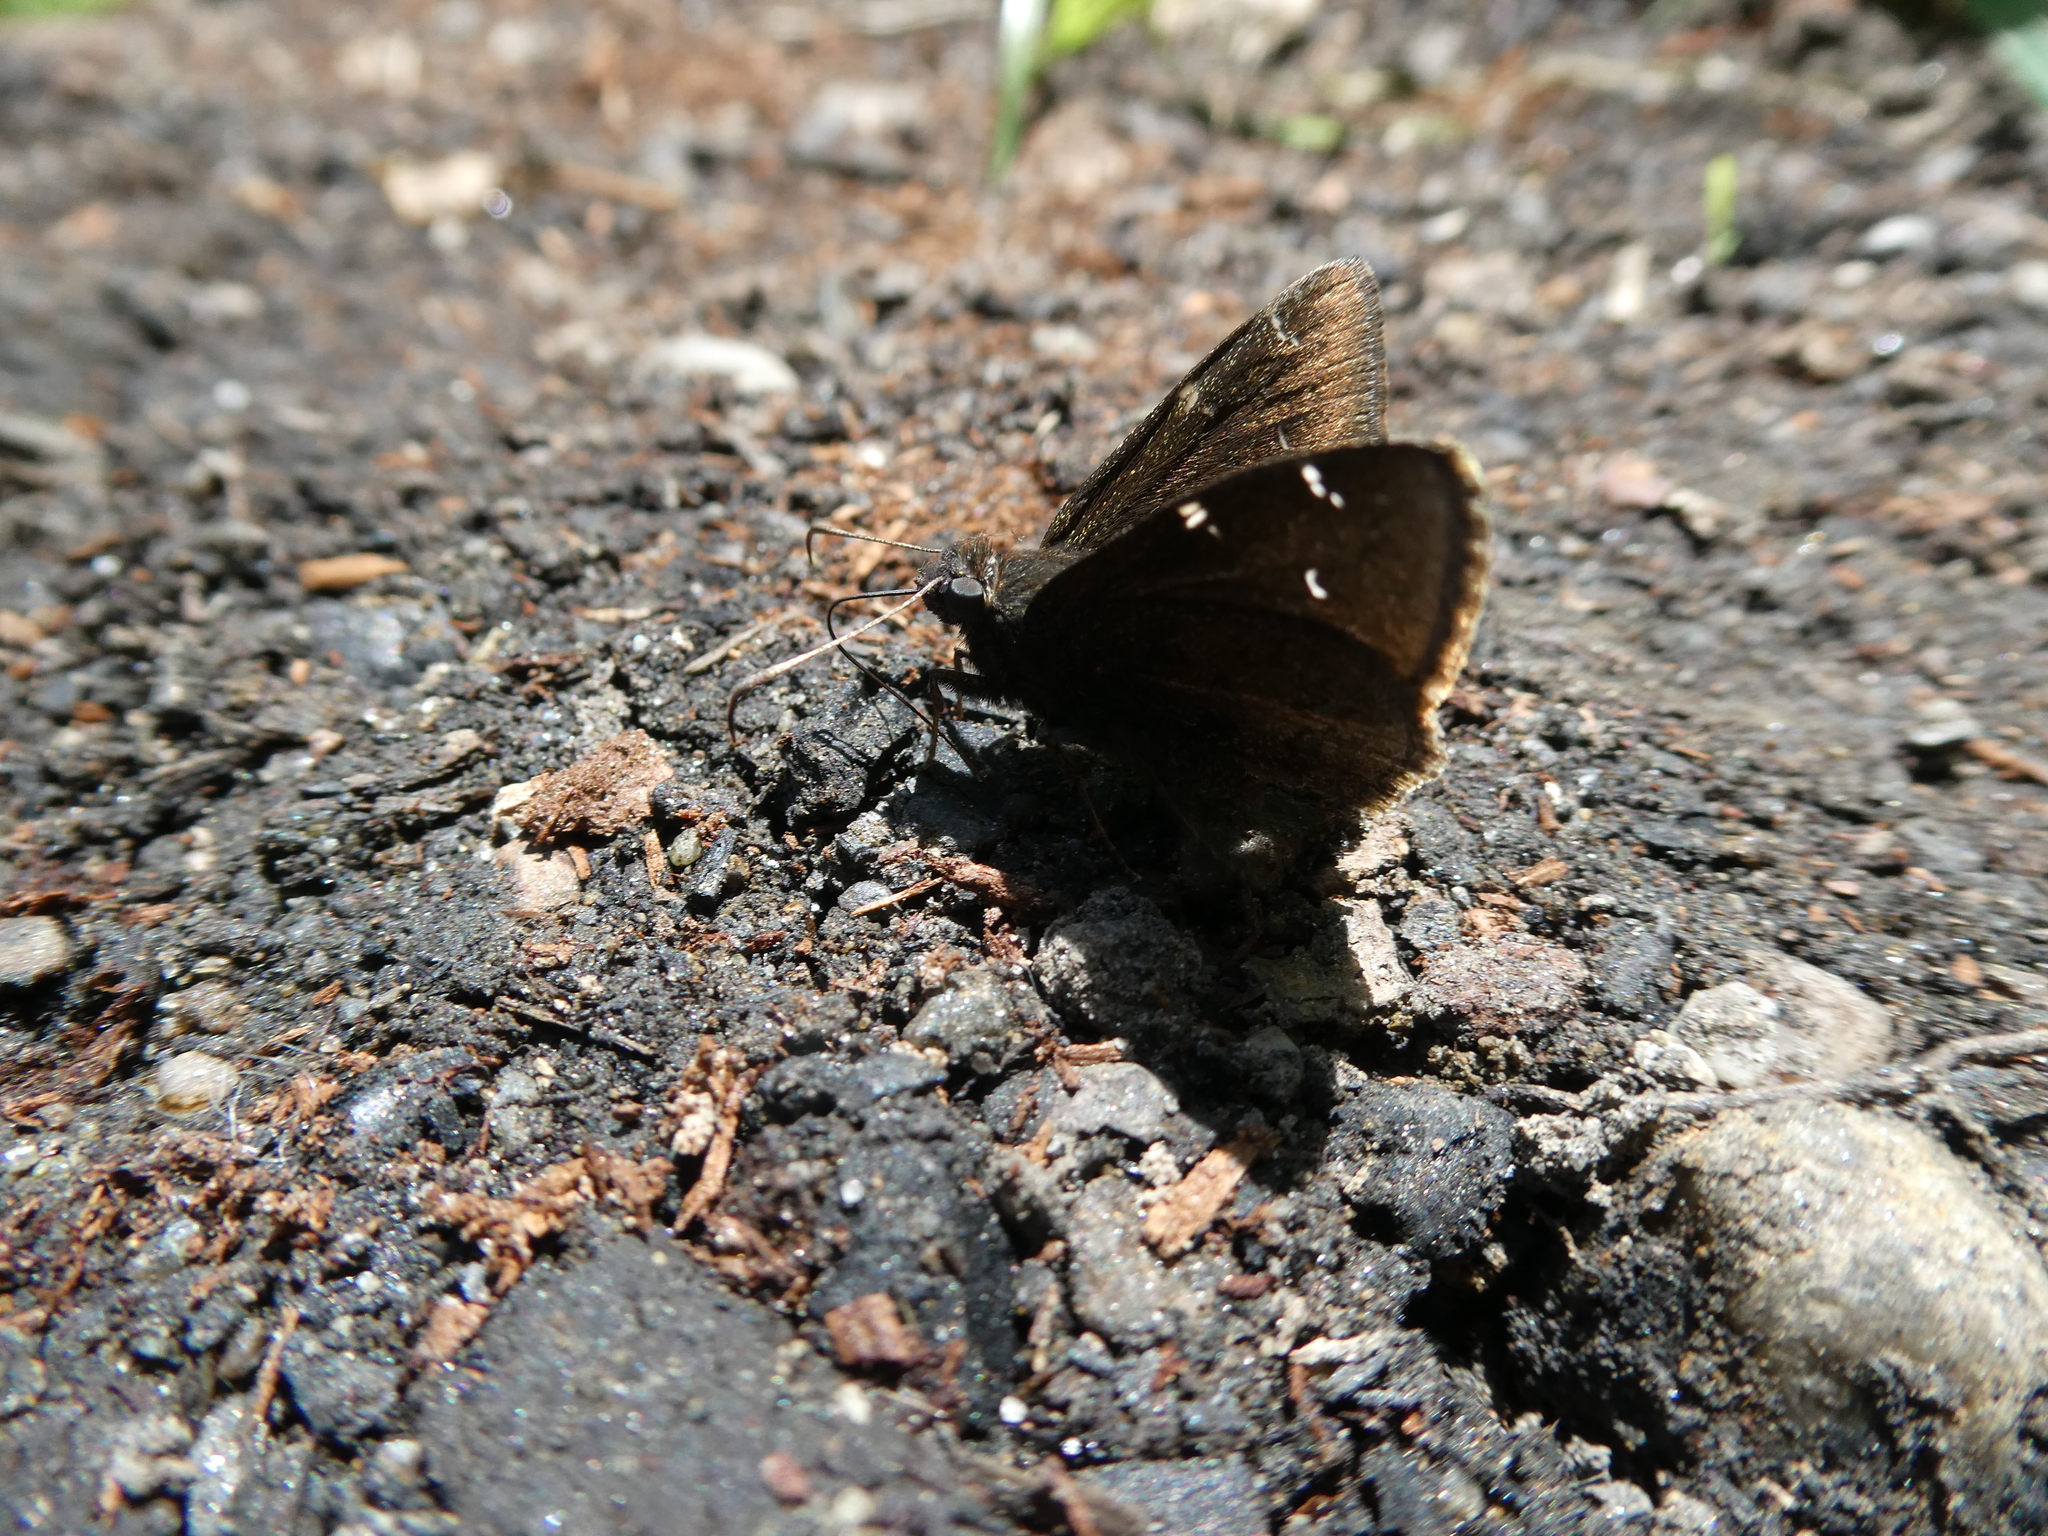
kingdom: Animalia
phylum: Arthropoda
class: Insecta
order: Lepidoptera
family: Hesperiidae
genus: Thorybes
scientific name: Thorybes pylades
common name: Northern cloudywing
